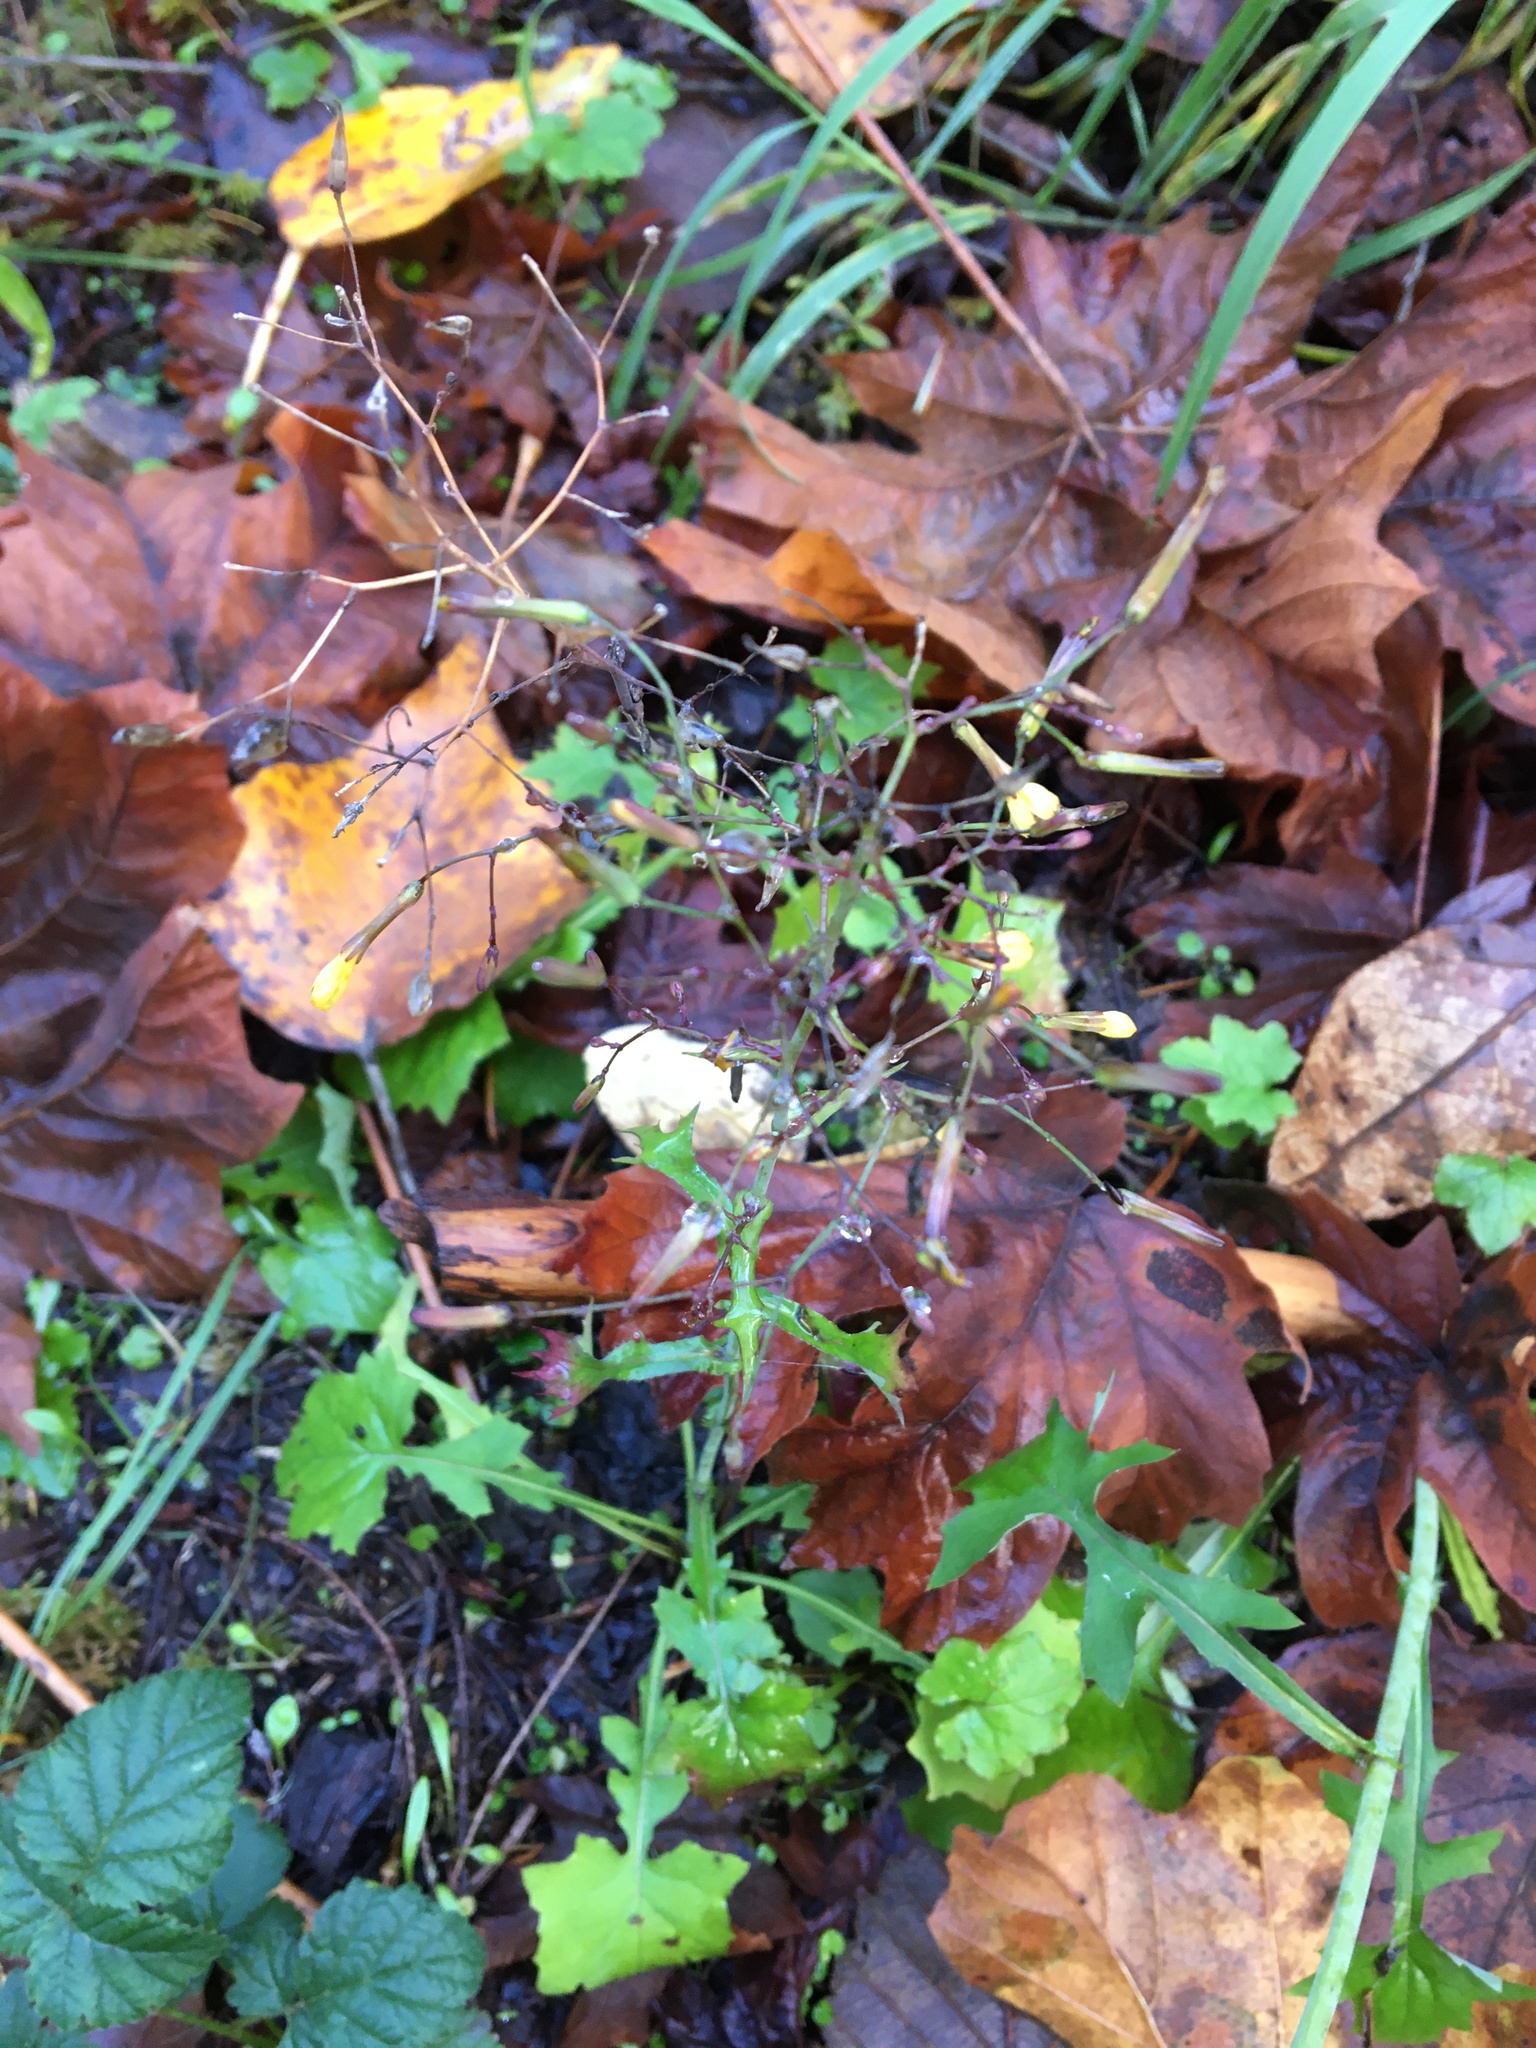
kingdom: Plantae
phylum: Tracheophyta
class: Magnoliopsida
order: Asterales
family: Asteraceae
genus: Mycelis
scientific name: Mycelis muralis
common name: Wall lettuce
